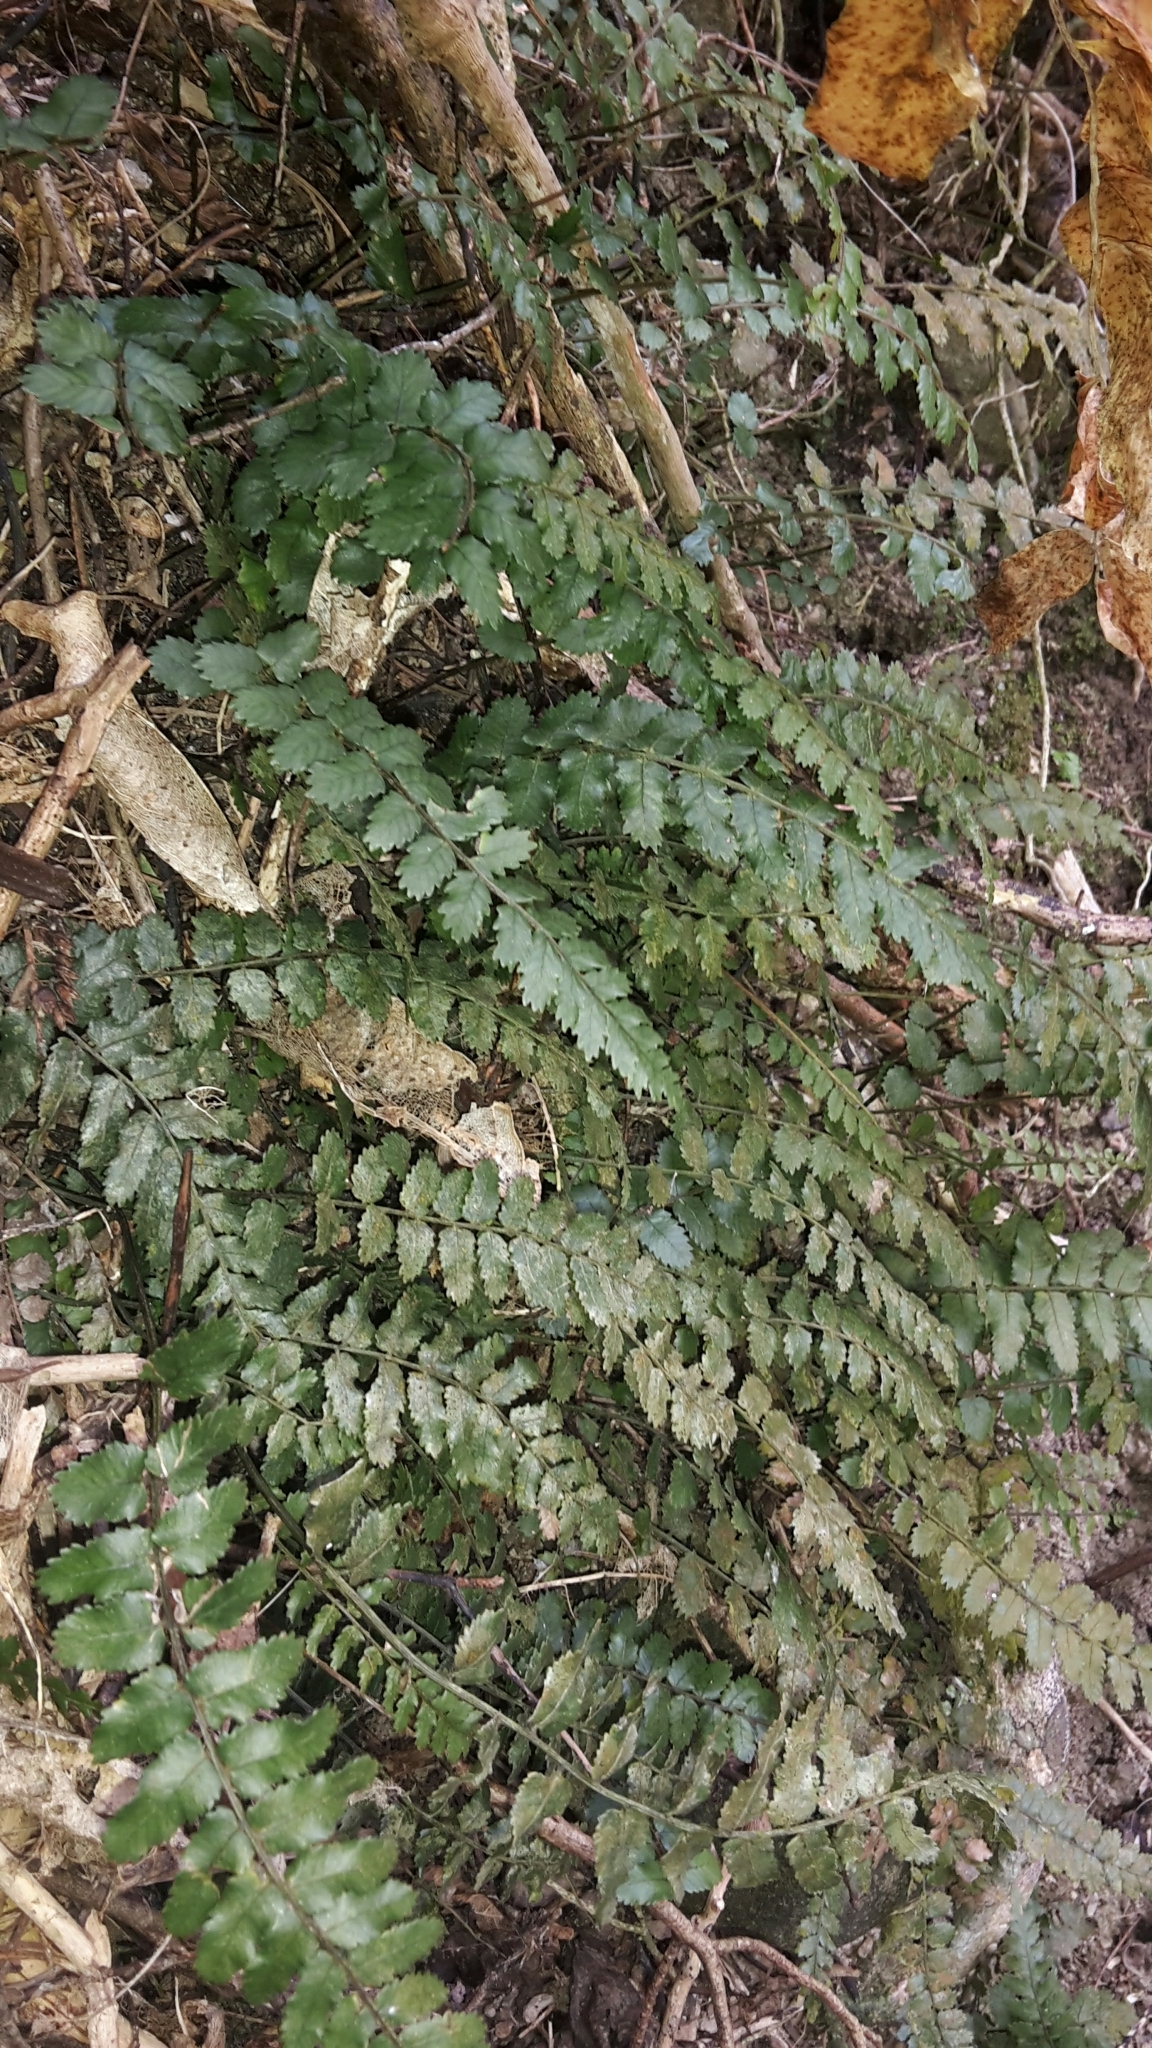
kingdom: Plantae
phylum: Tracheophyta
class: Polypodiopsida
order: Polypodiales
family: Blechnaceae
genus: Icarus
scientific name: Icarus filiformis
